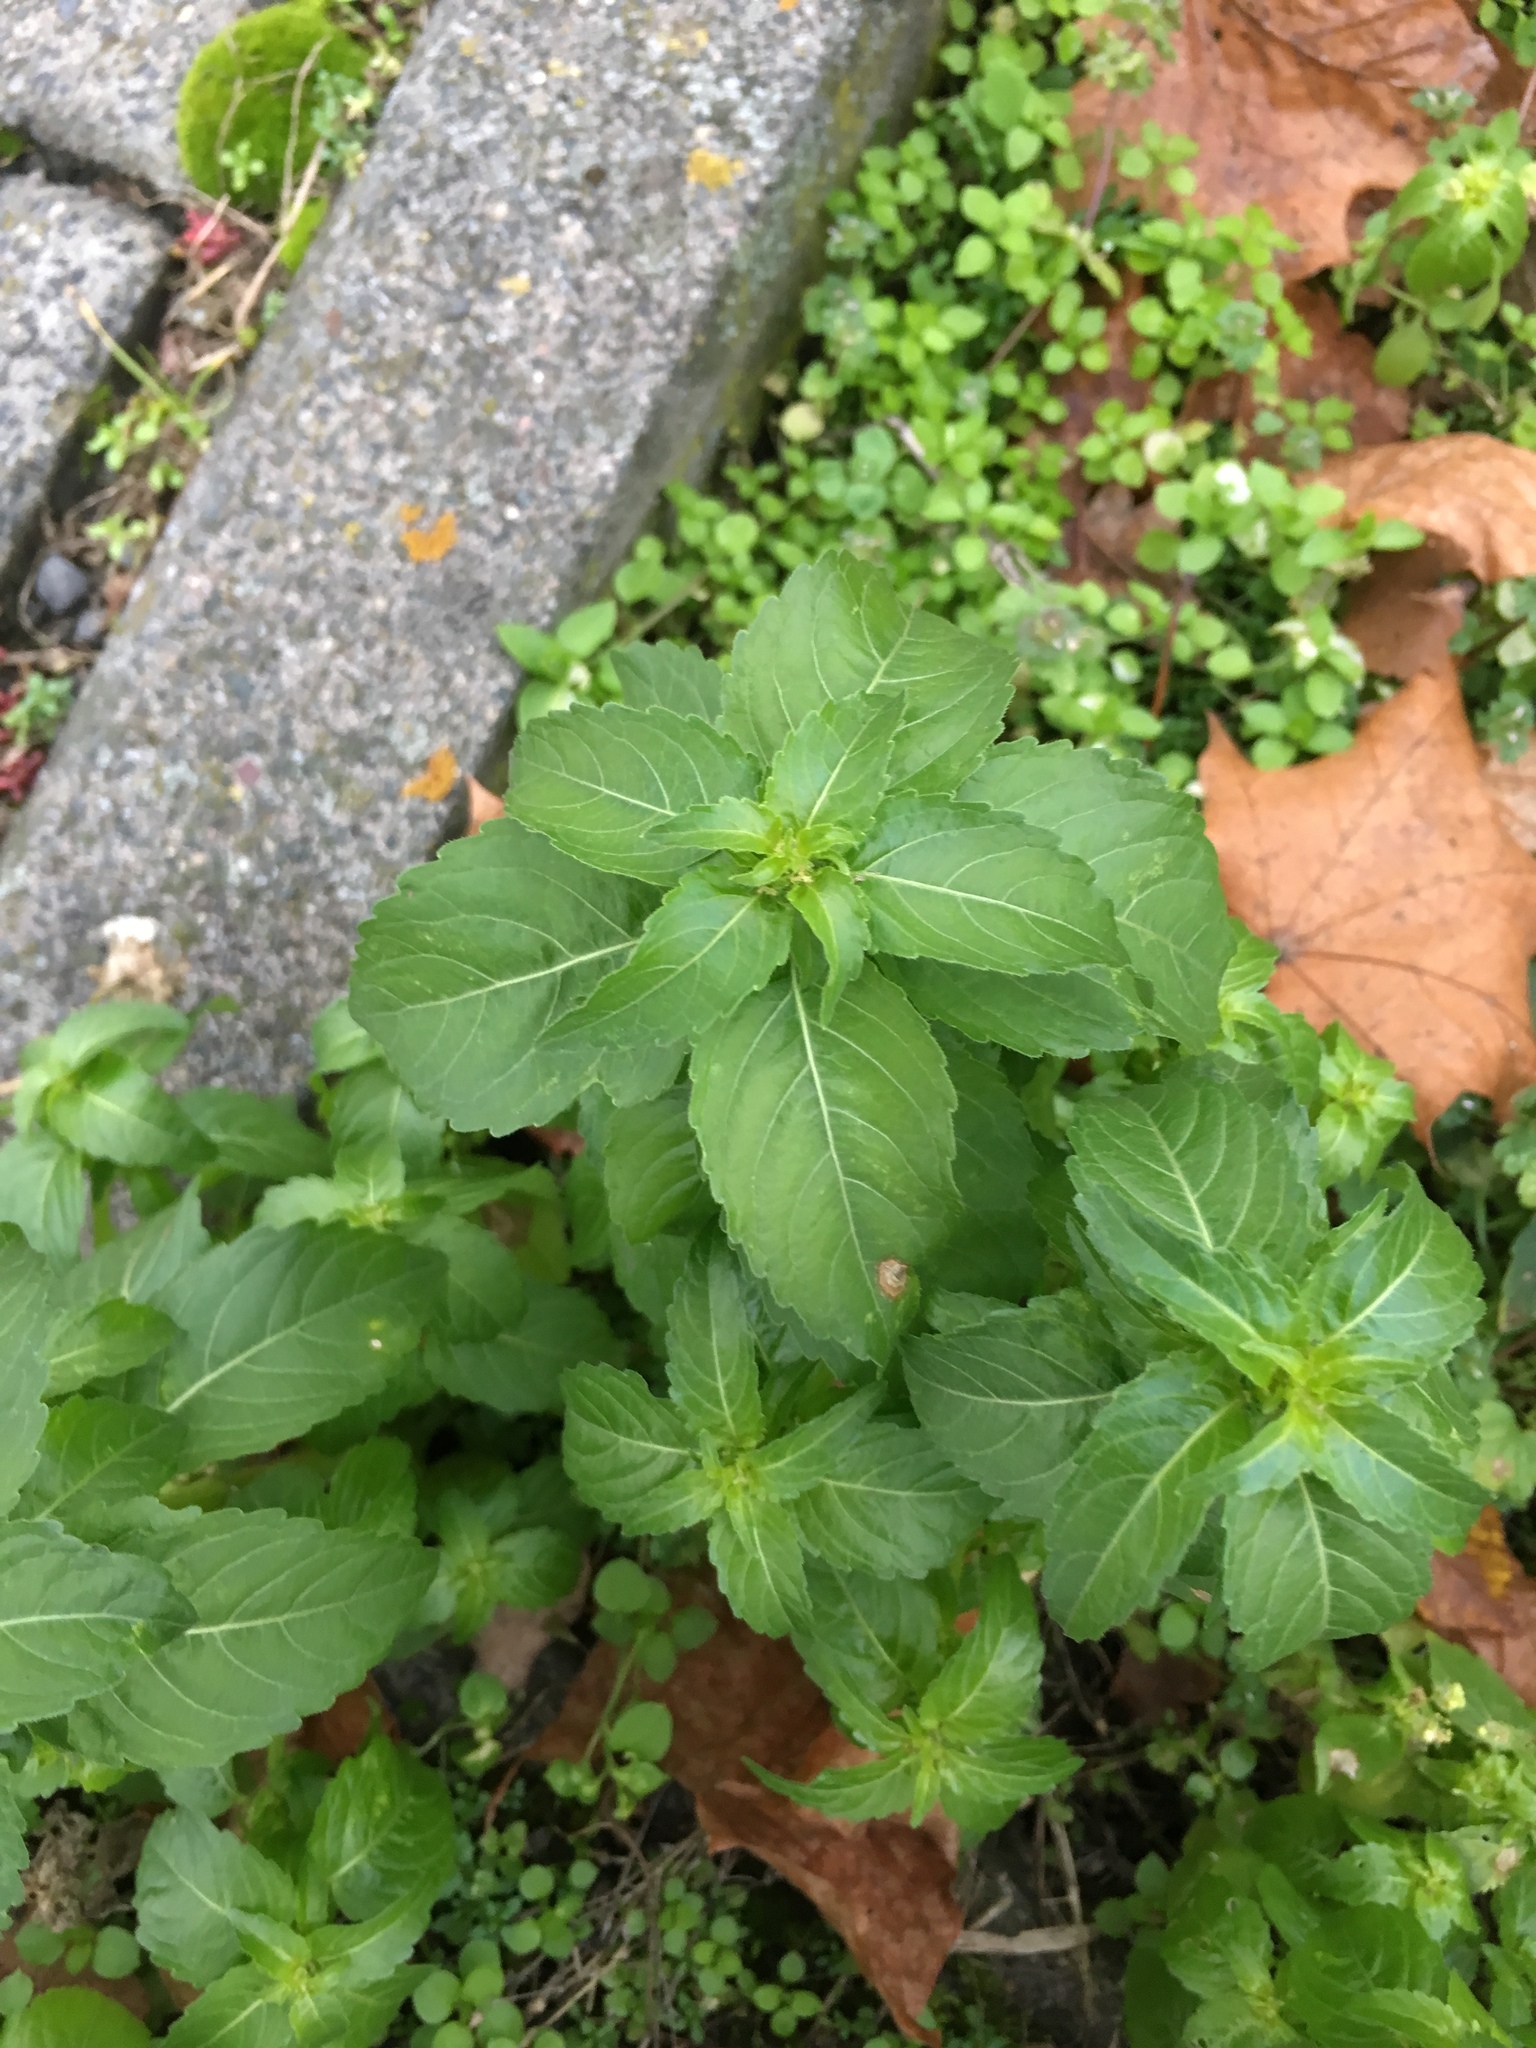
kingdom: Plantae
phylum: Tracheophyta
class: Magnoliopsida
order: Malpighiales
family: Euphorbiaceae
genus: Mercurialis
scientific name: Mercurialis annua
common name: Annual mercury
